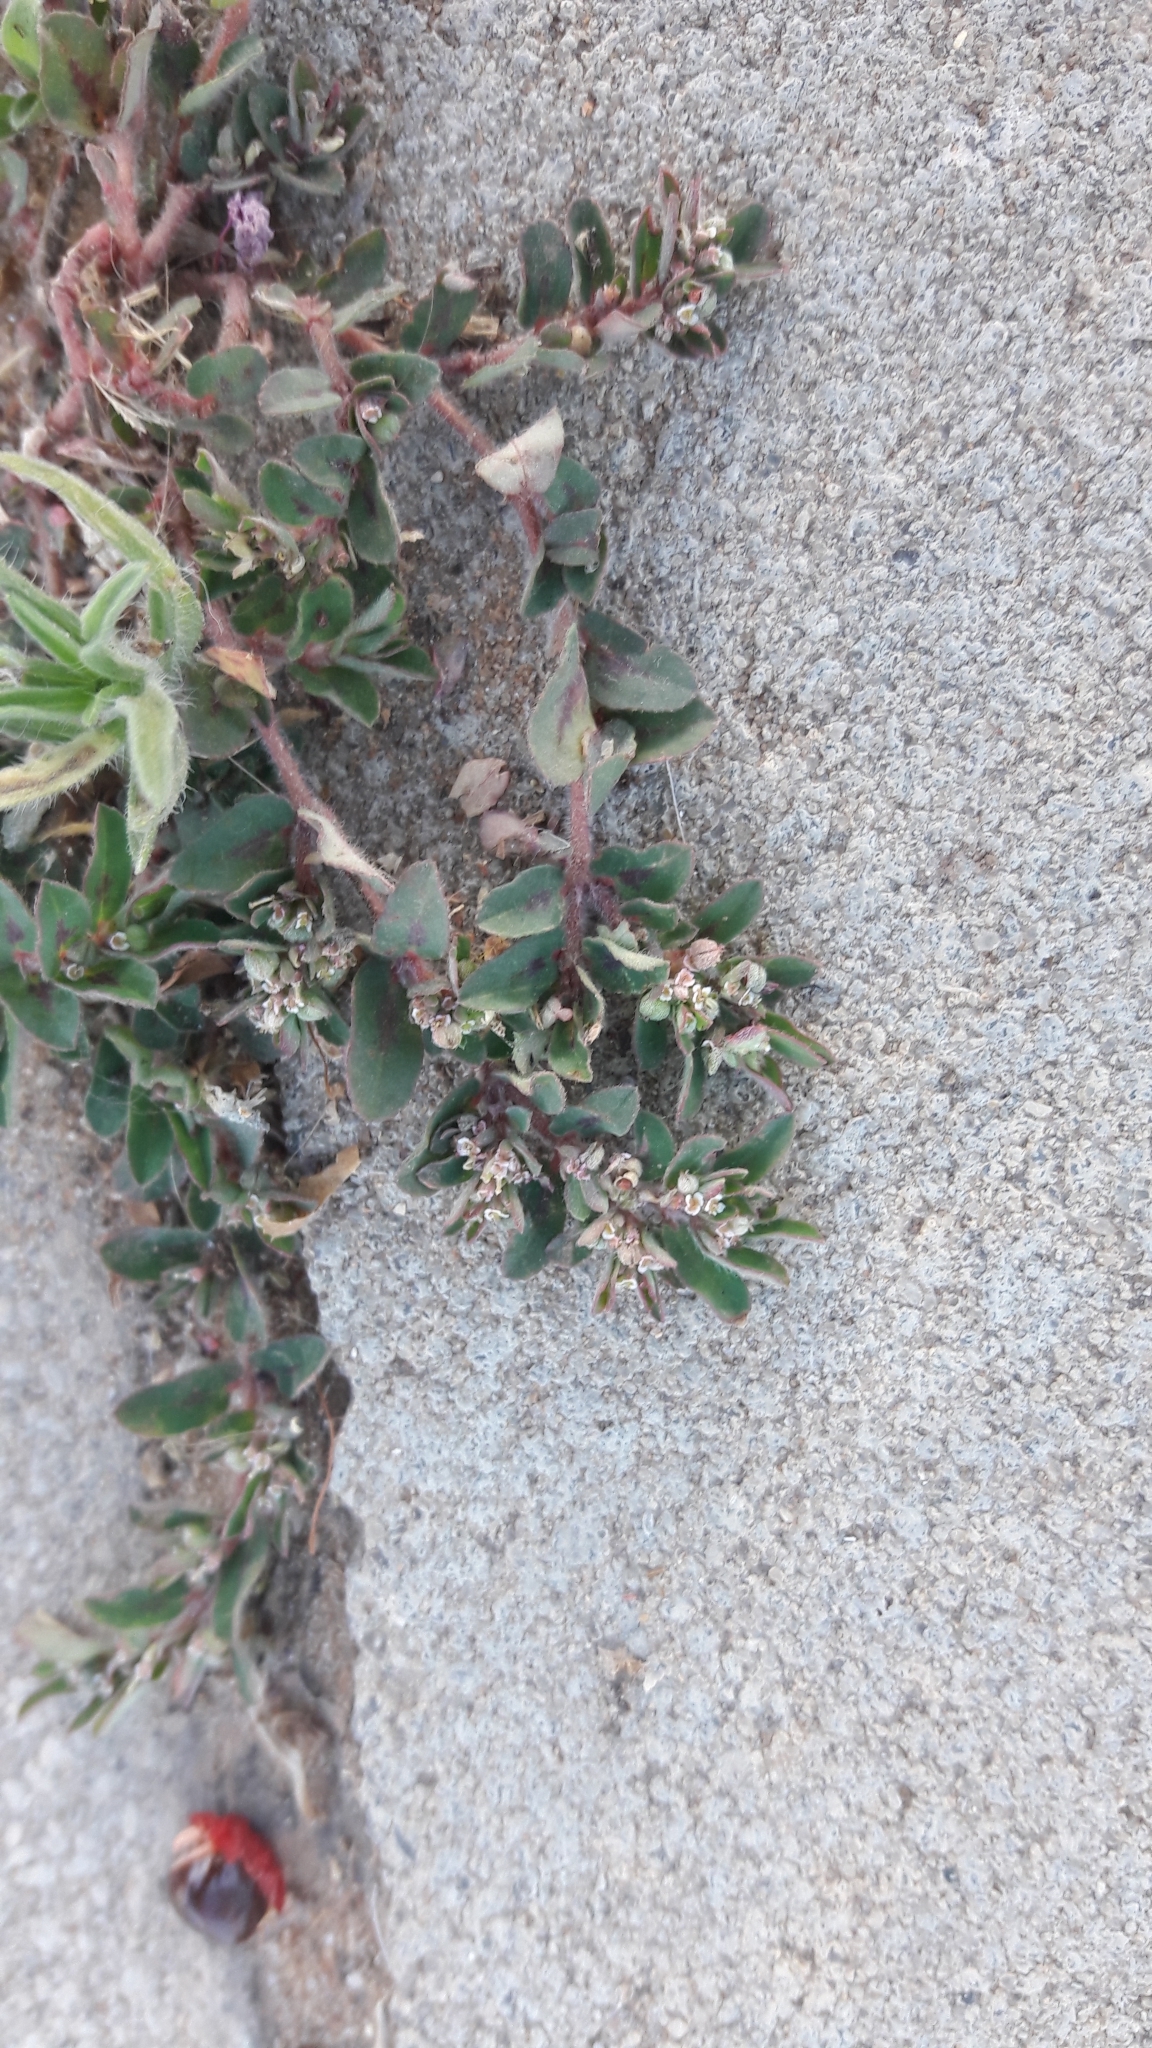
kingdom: Plantae
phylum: Tracheophyta
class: Magnoliopsida
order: Malpighiales
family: Euphorbiaceae
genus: Euphorbia
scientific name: Euphorbia maculata
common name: Spotted spurge
